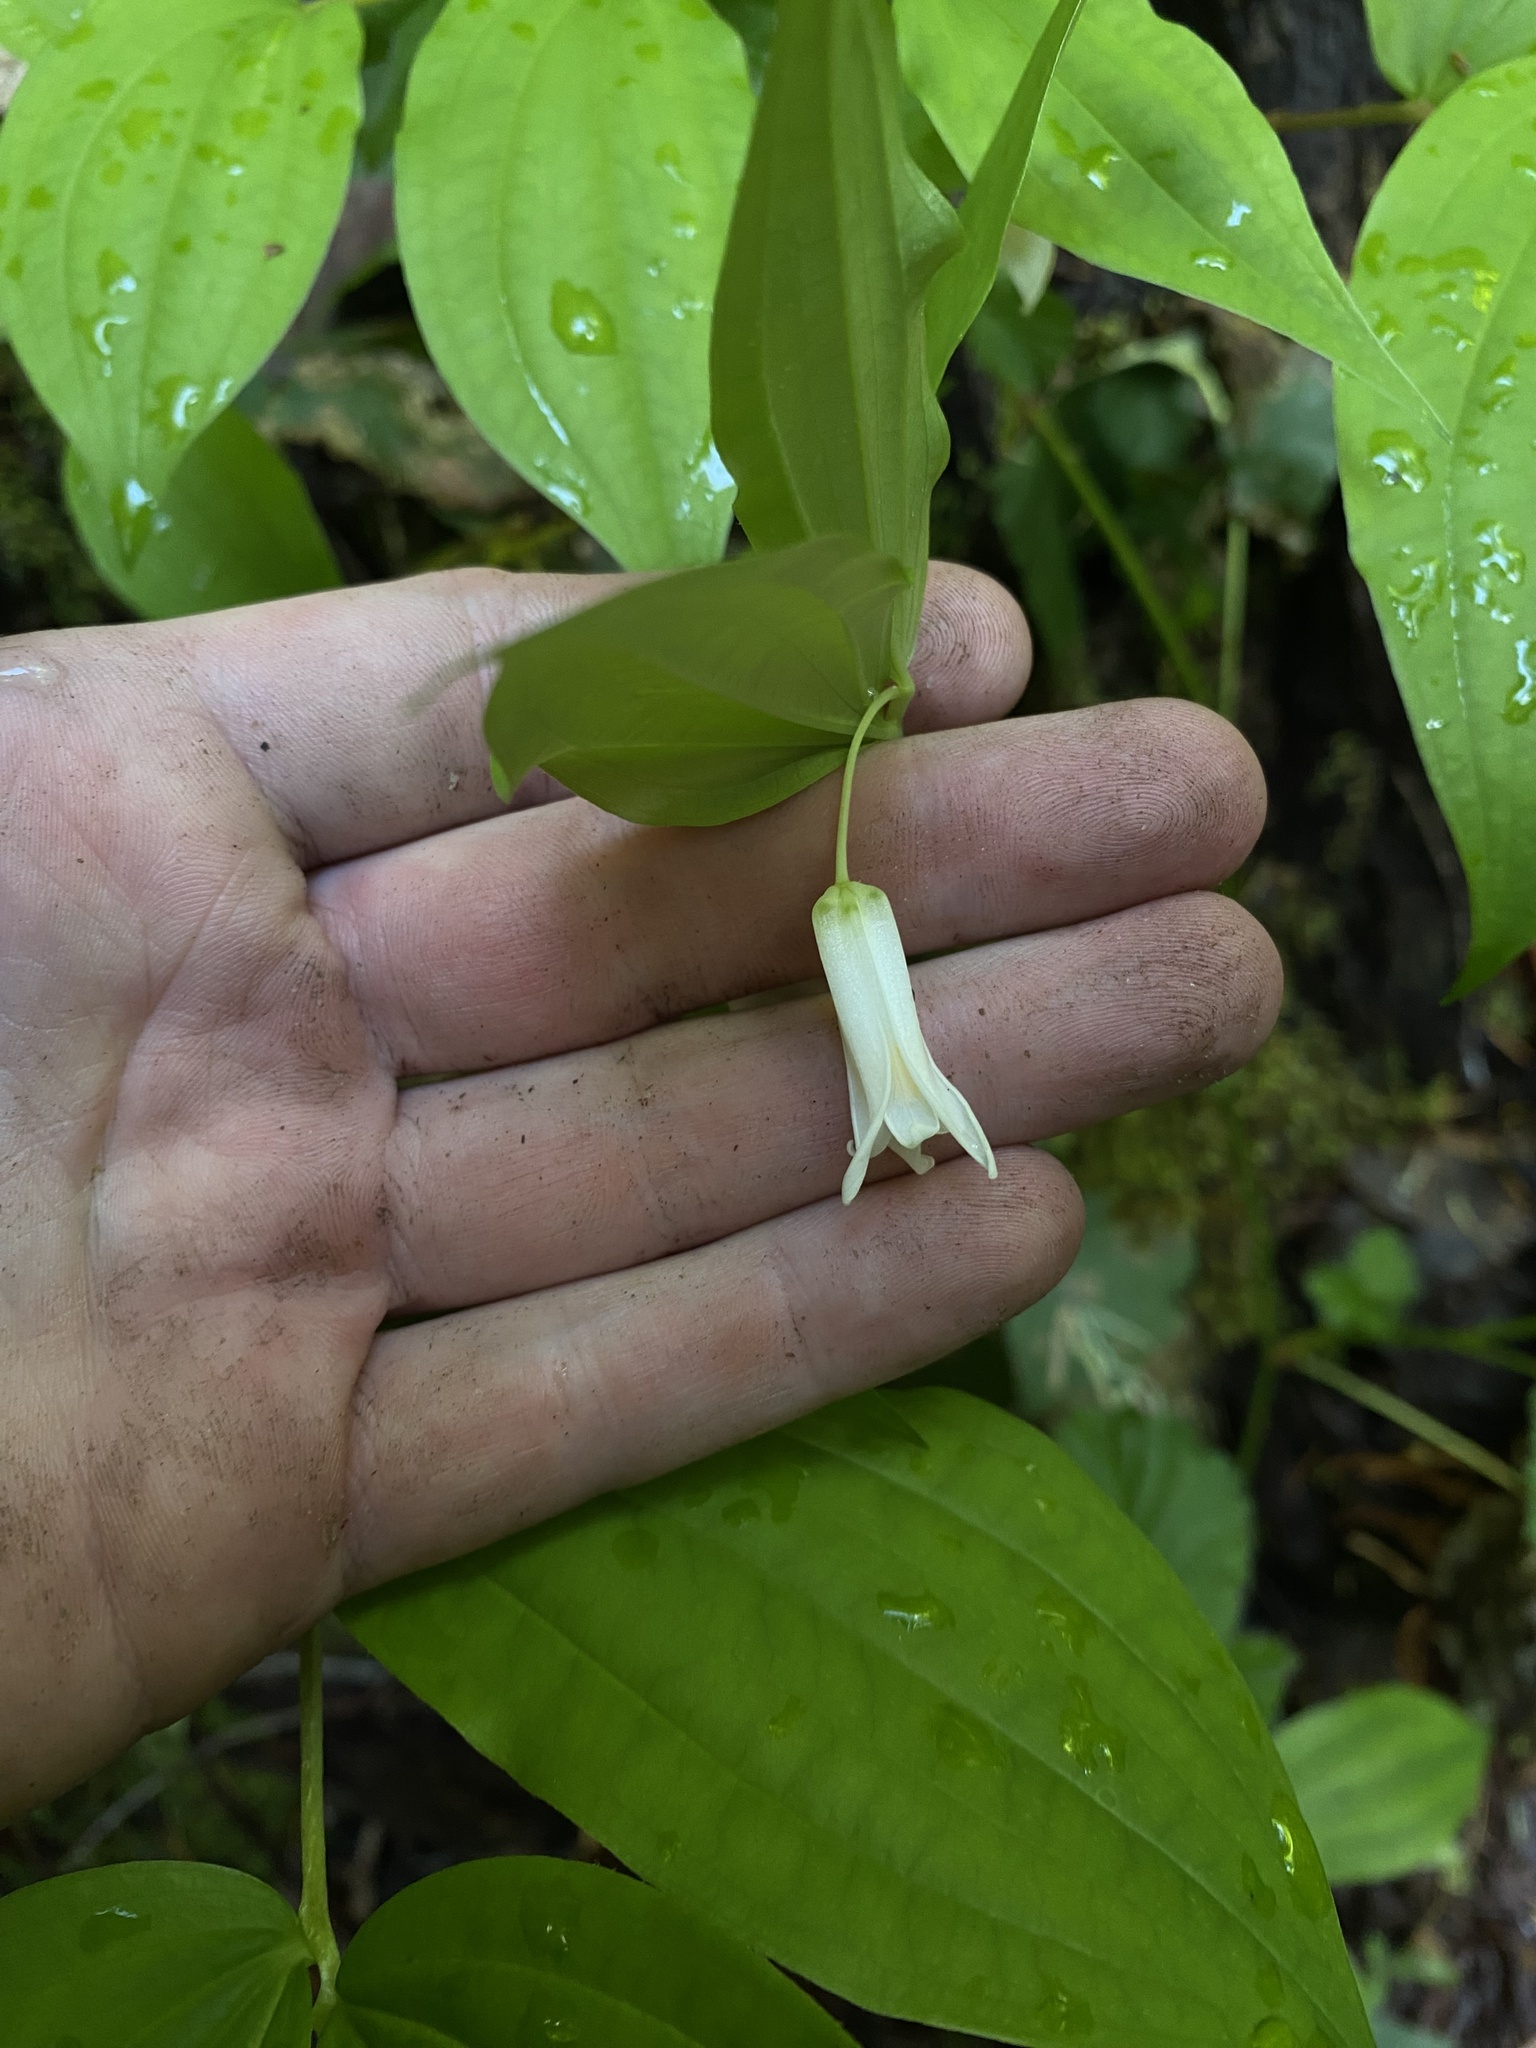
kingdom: Plantae
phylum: Tracheophyta
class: Liliopsida
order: Liliales
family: Liliaceae
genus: Prosartes
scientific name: Prosartes smithii
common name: Fairy-lantern
